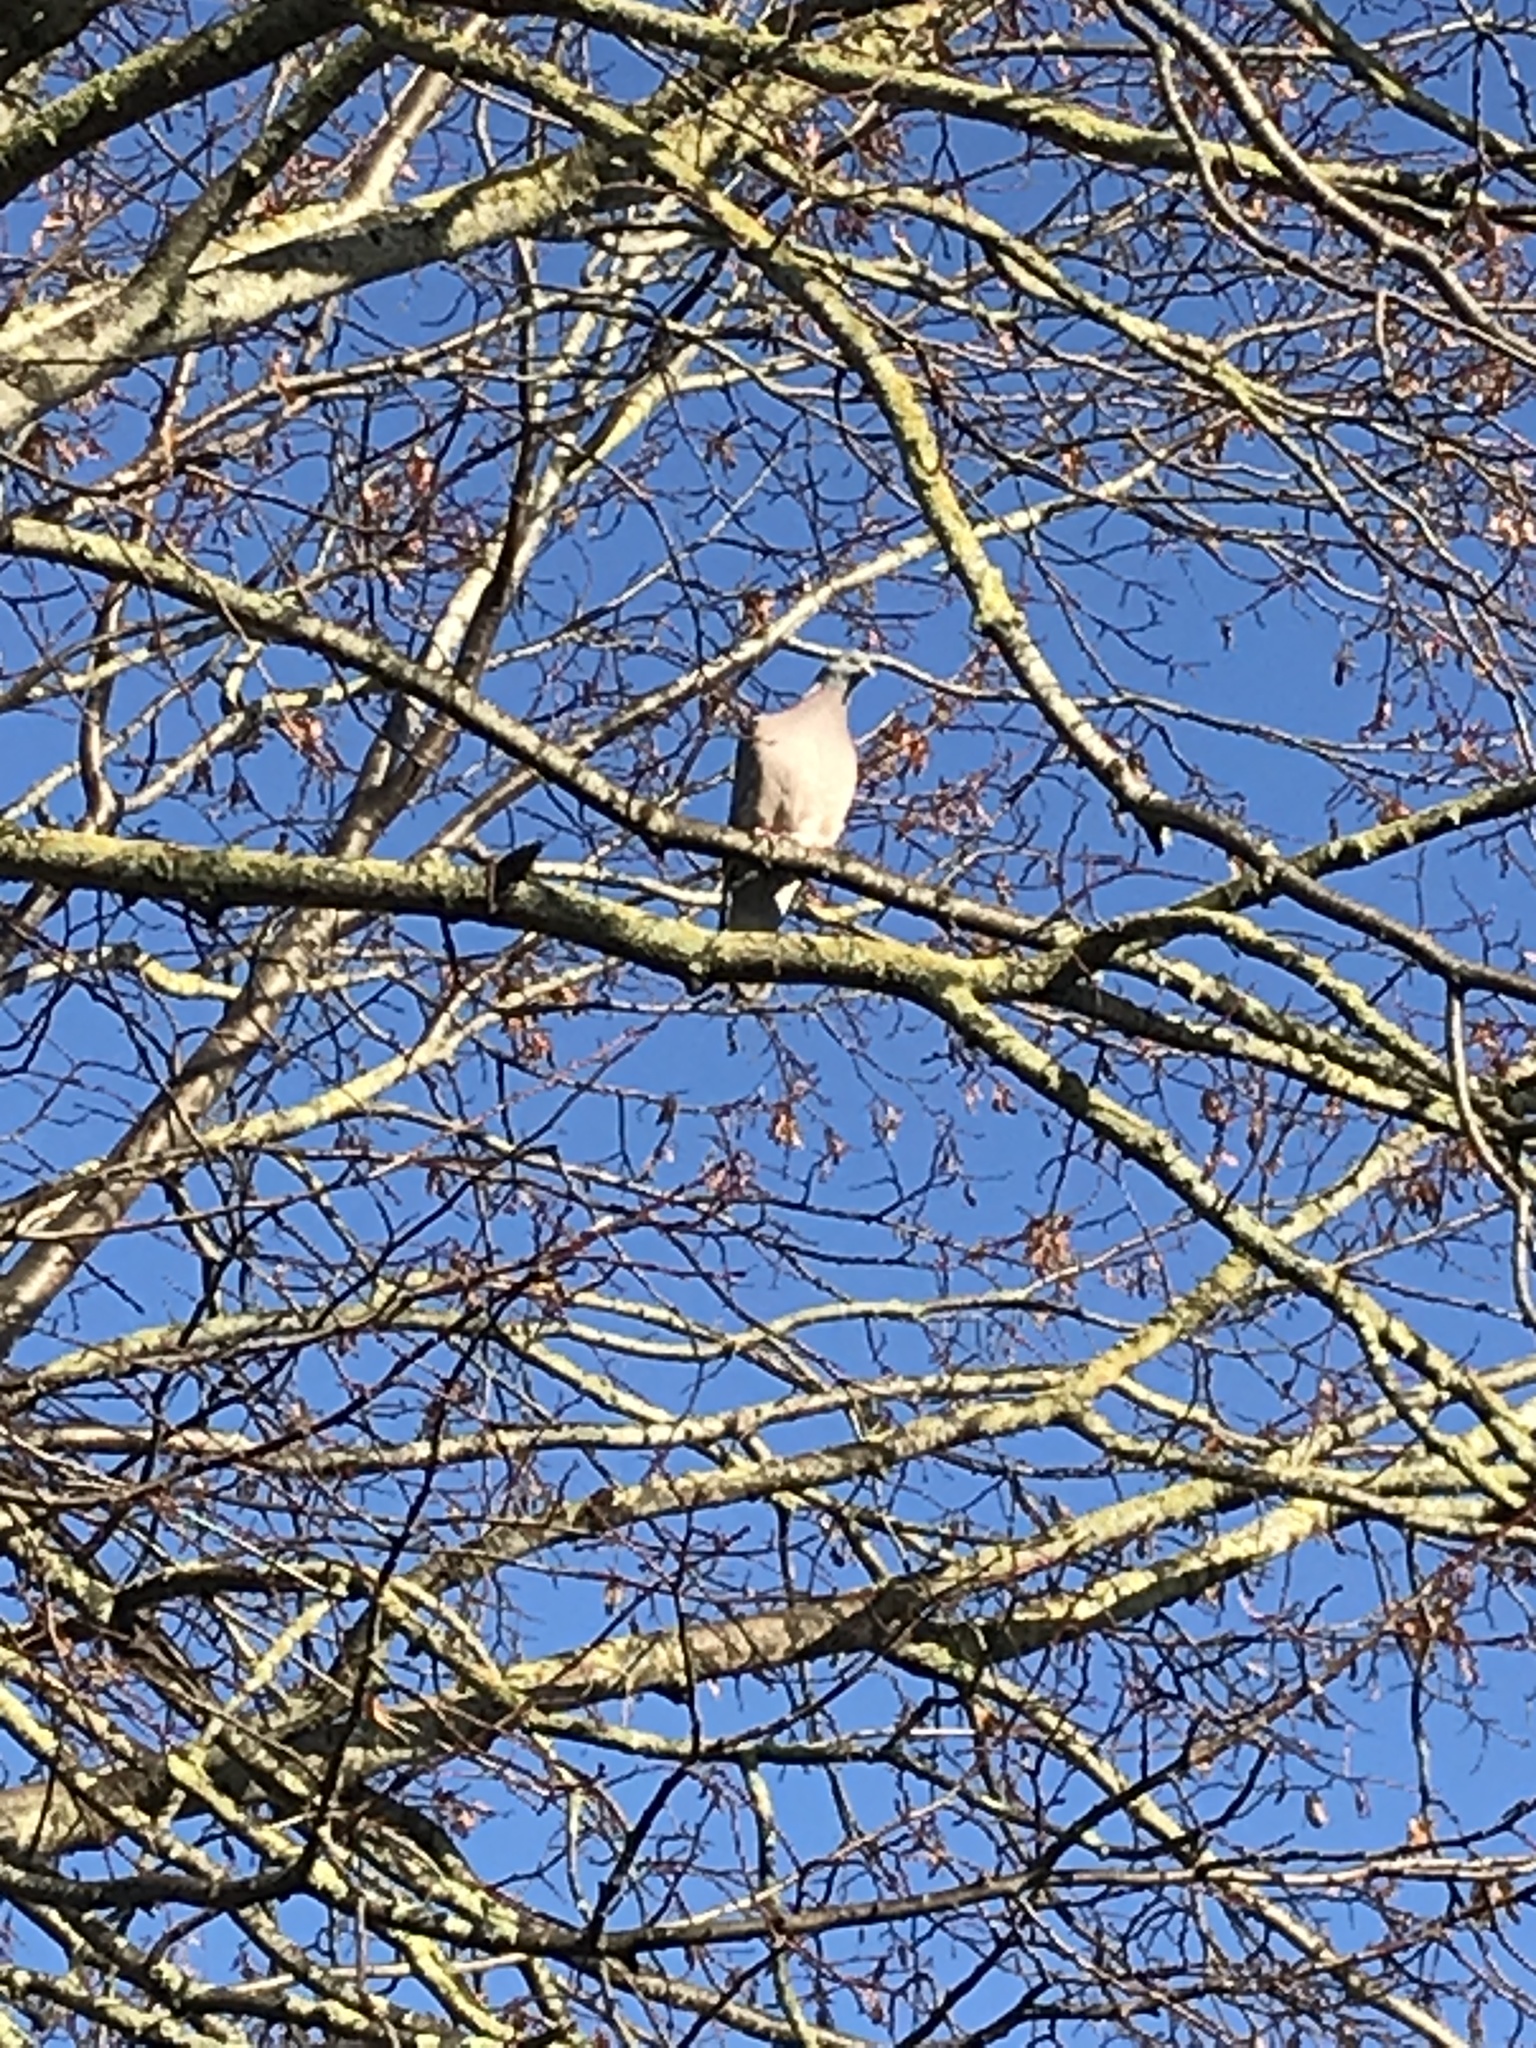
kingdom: Animalia
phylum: Chordata
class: Aves
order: Columbiformes
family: Columbidae
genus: Columba
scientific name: Columba palumbus
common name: Common wood pigeon
